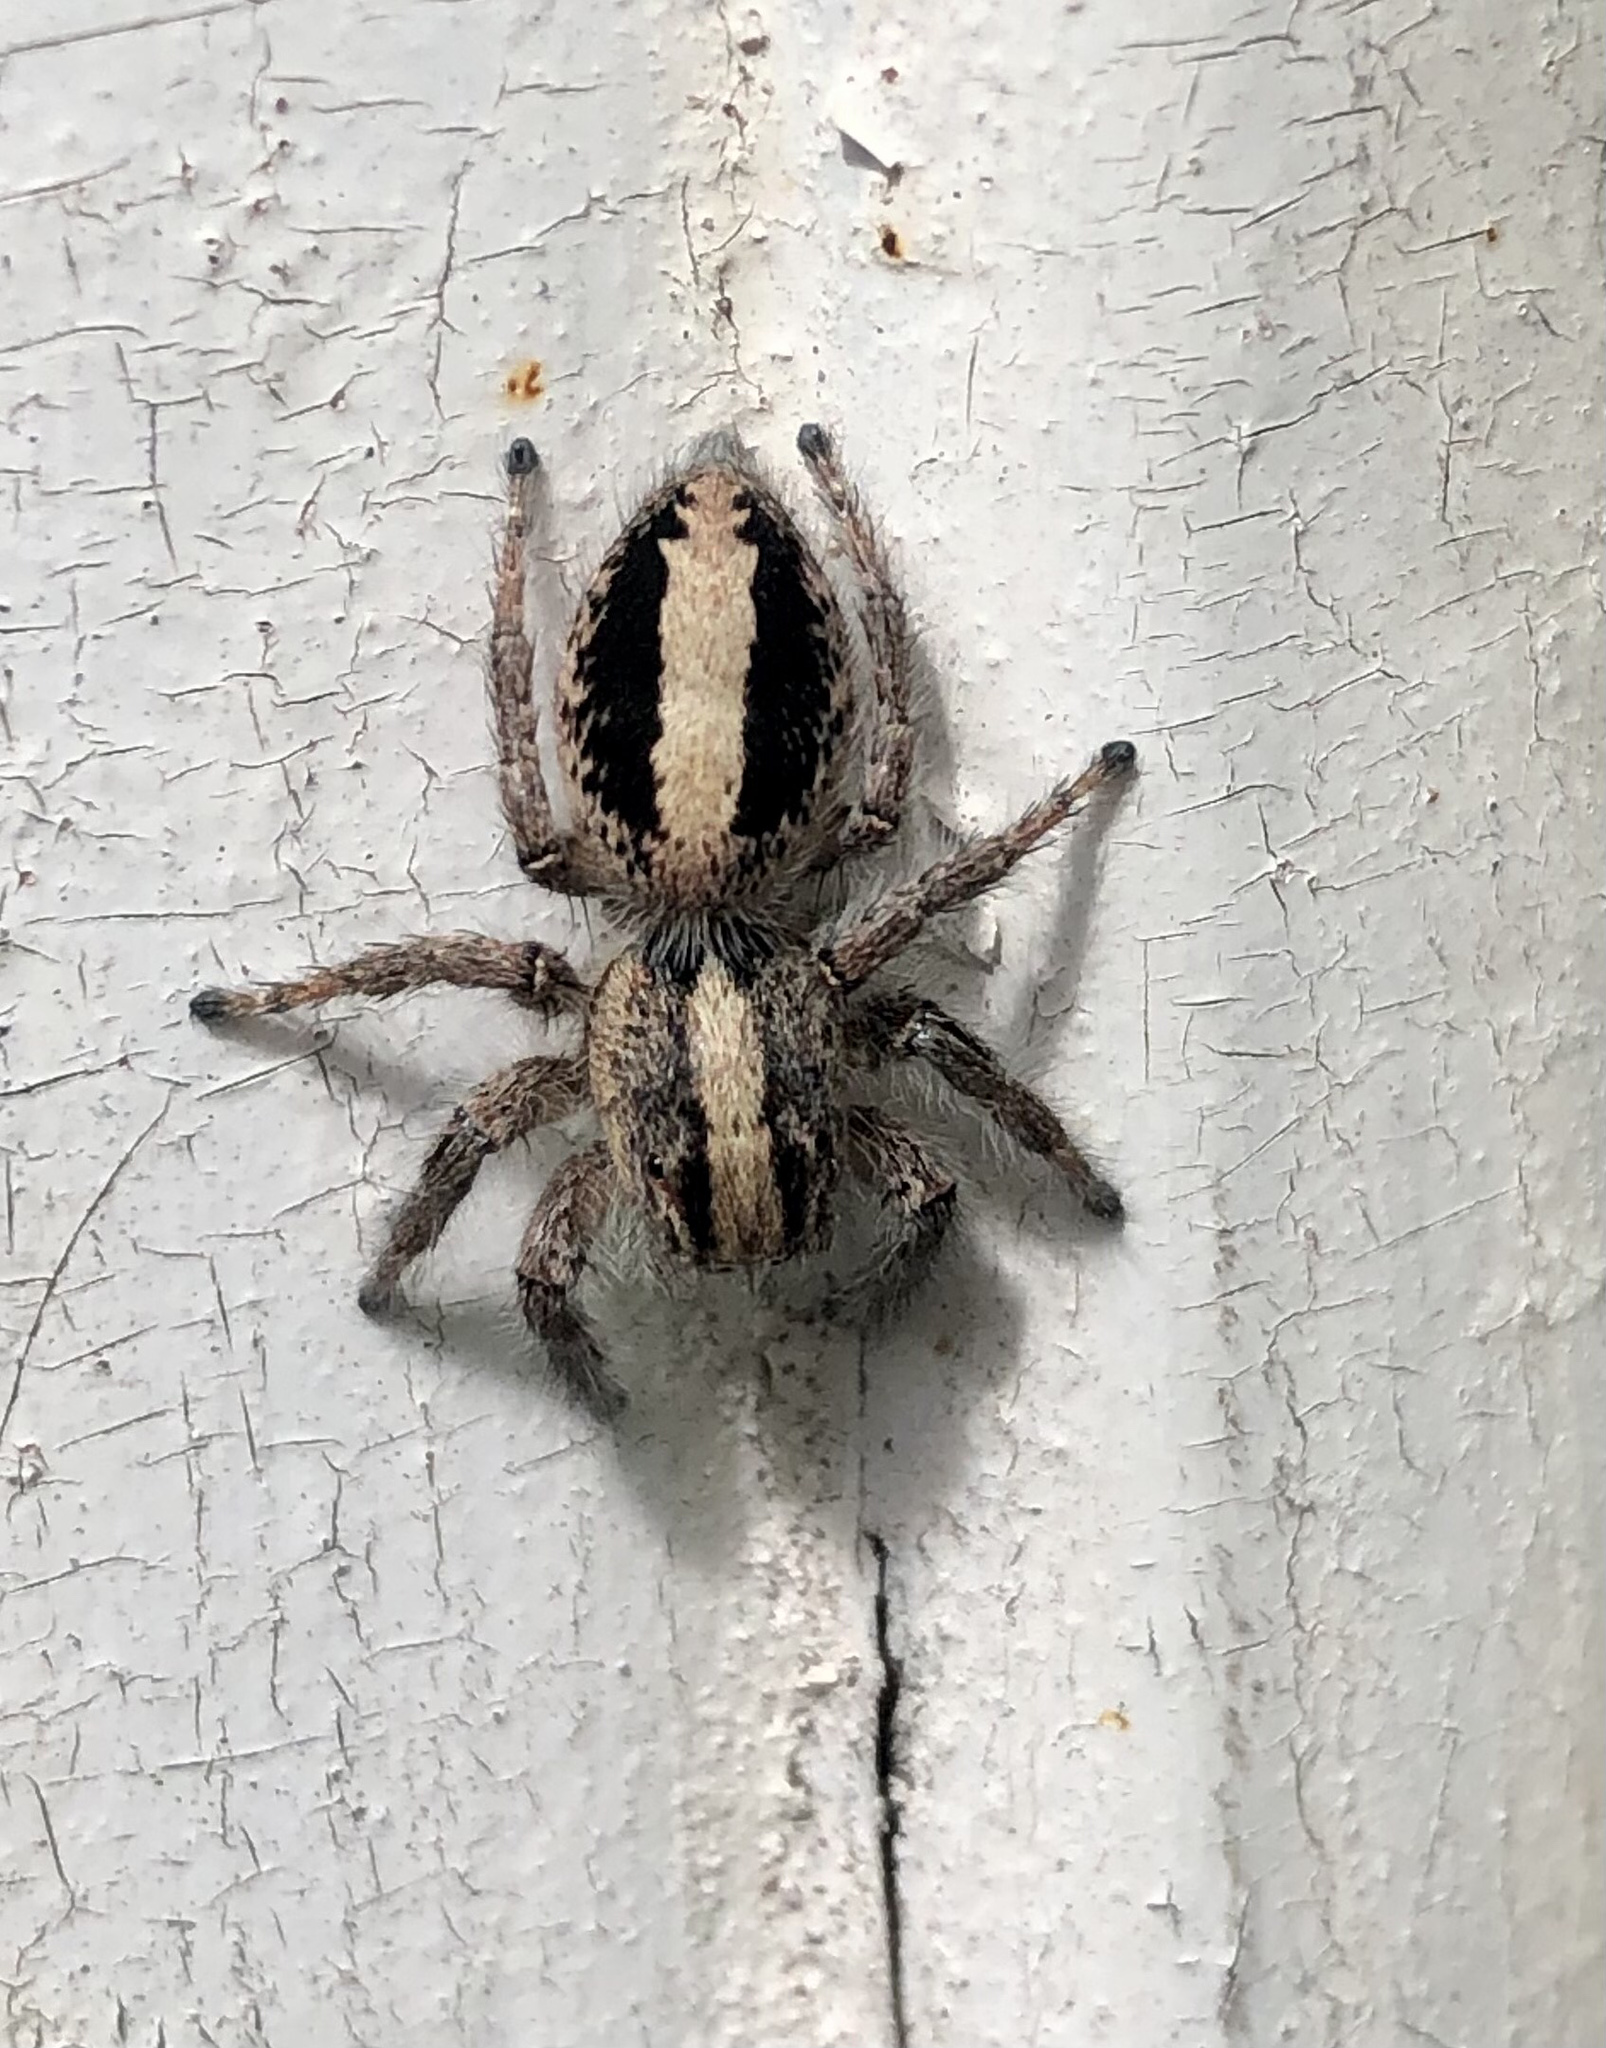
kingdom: Animalia
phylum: Arthropoda
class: Arachnida
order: Araneae
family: Salticidae
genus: Megafreya
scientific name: Megafreya sutrix
